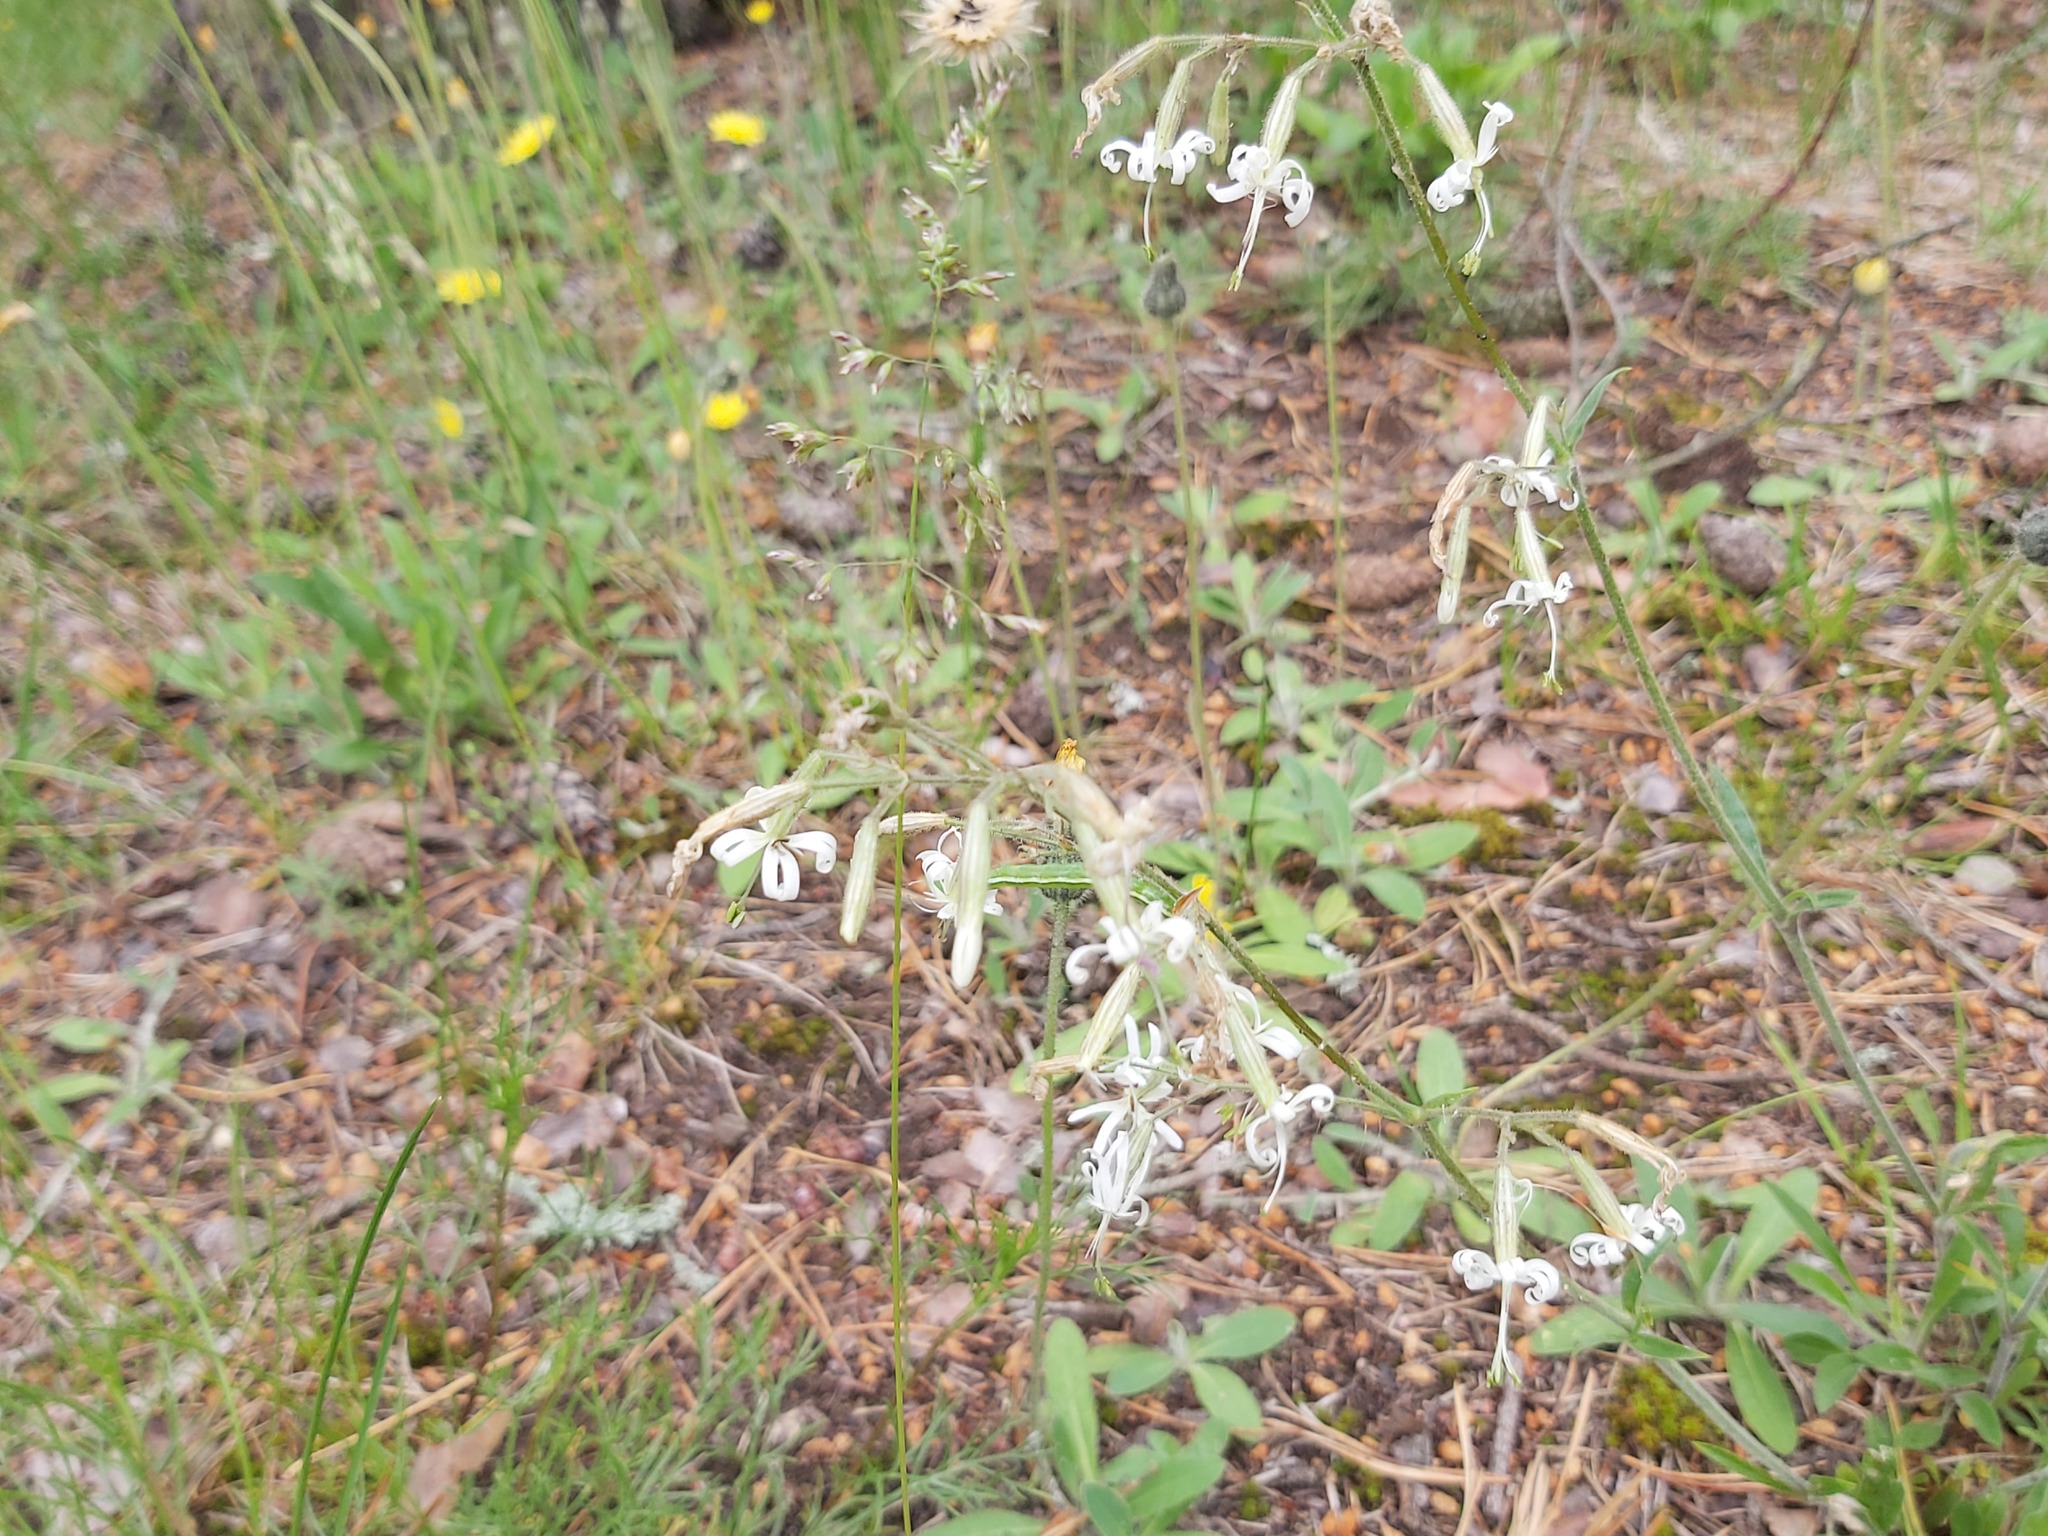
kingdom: Plantae
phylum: Tracheophyta
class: Magnoliopsida
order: Caryophyllales
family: Caryophyllaceae
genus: Silene
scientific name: Silene nutans
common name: Nottingham catchfly
